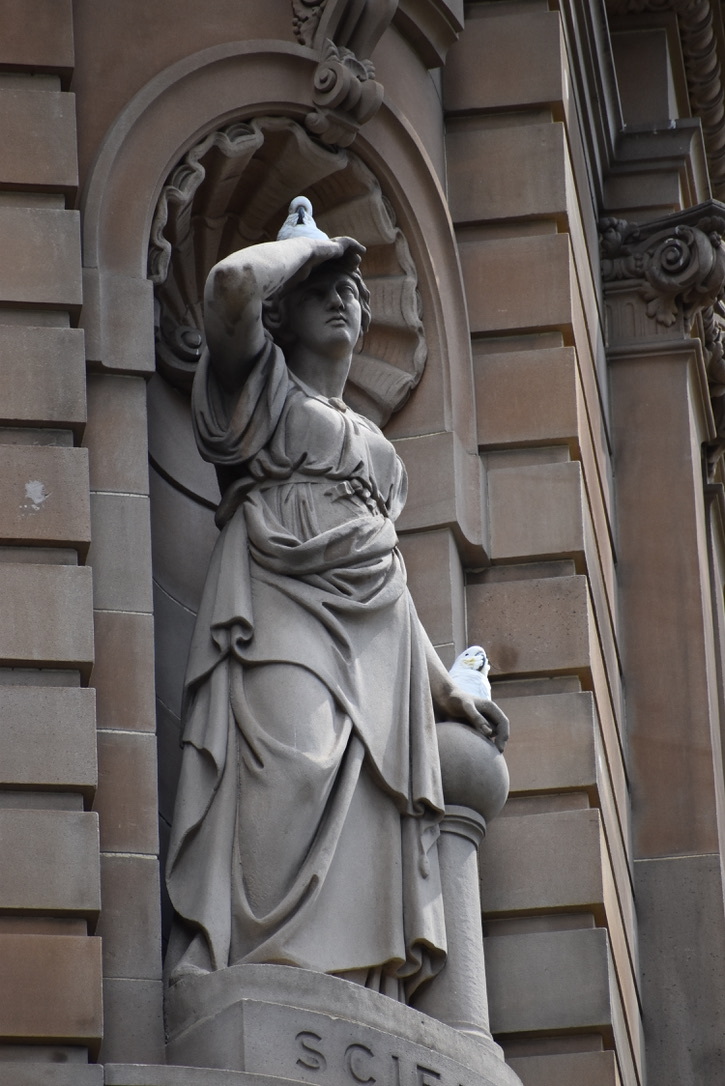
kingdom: Animalia
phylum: Chordata
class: Aves
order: Psittaciformes
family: Psittacidae
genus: Cacatua
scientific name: Cacatua galerita
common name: Sulphur-crested cockatoo
